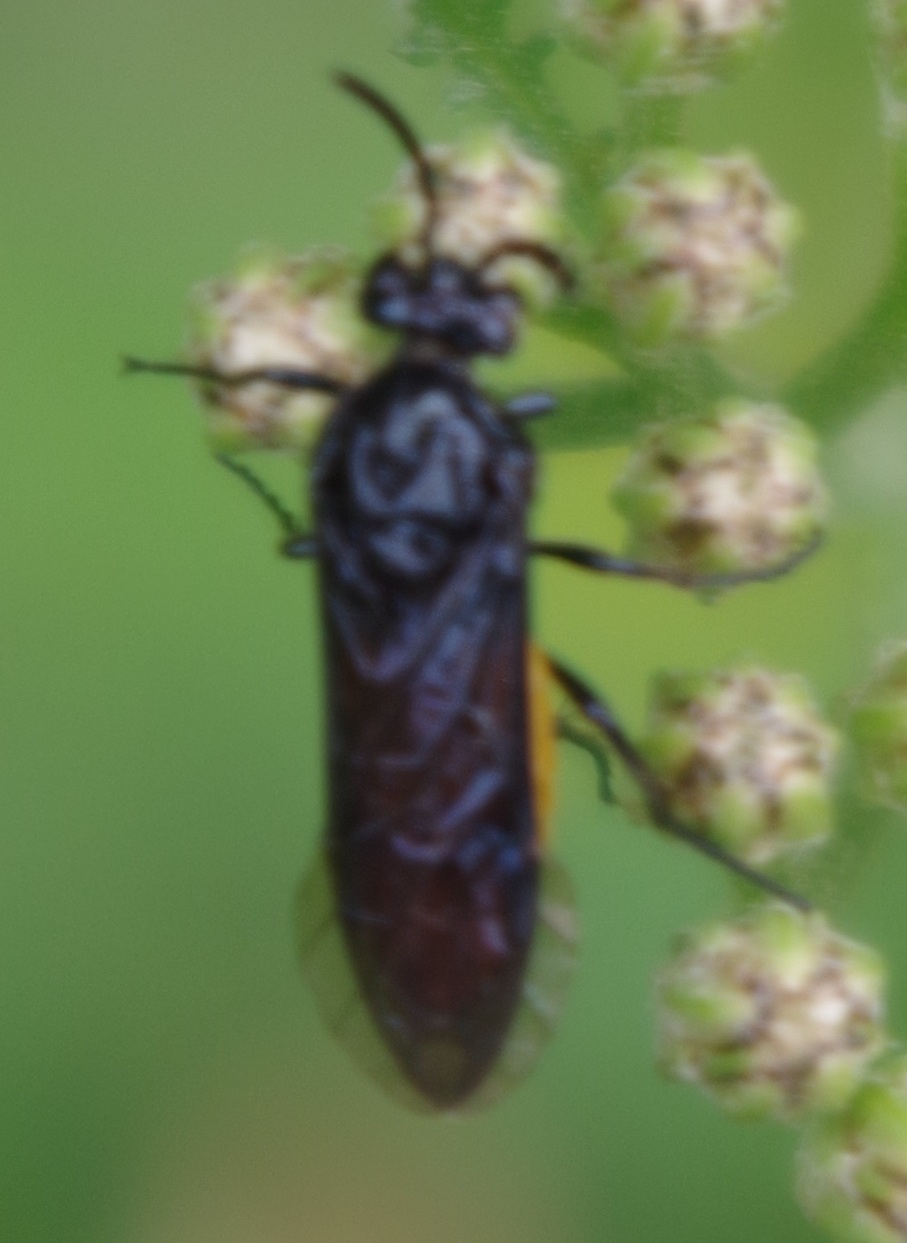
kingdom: Animalia
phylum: Arthropoda
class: Insecta
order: Hymenoptera
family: Argidae
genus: Arge
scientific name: Arge pagana
